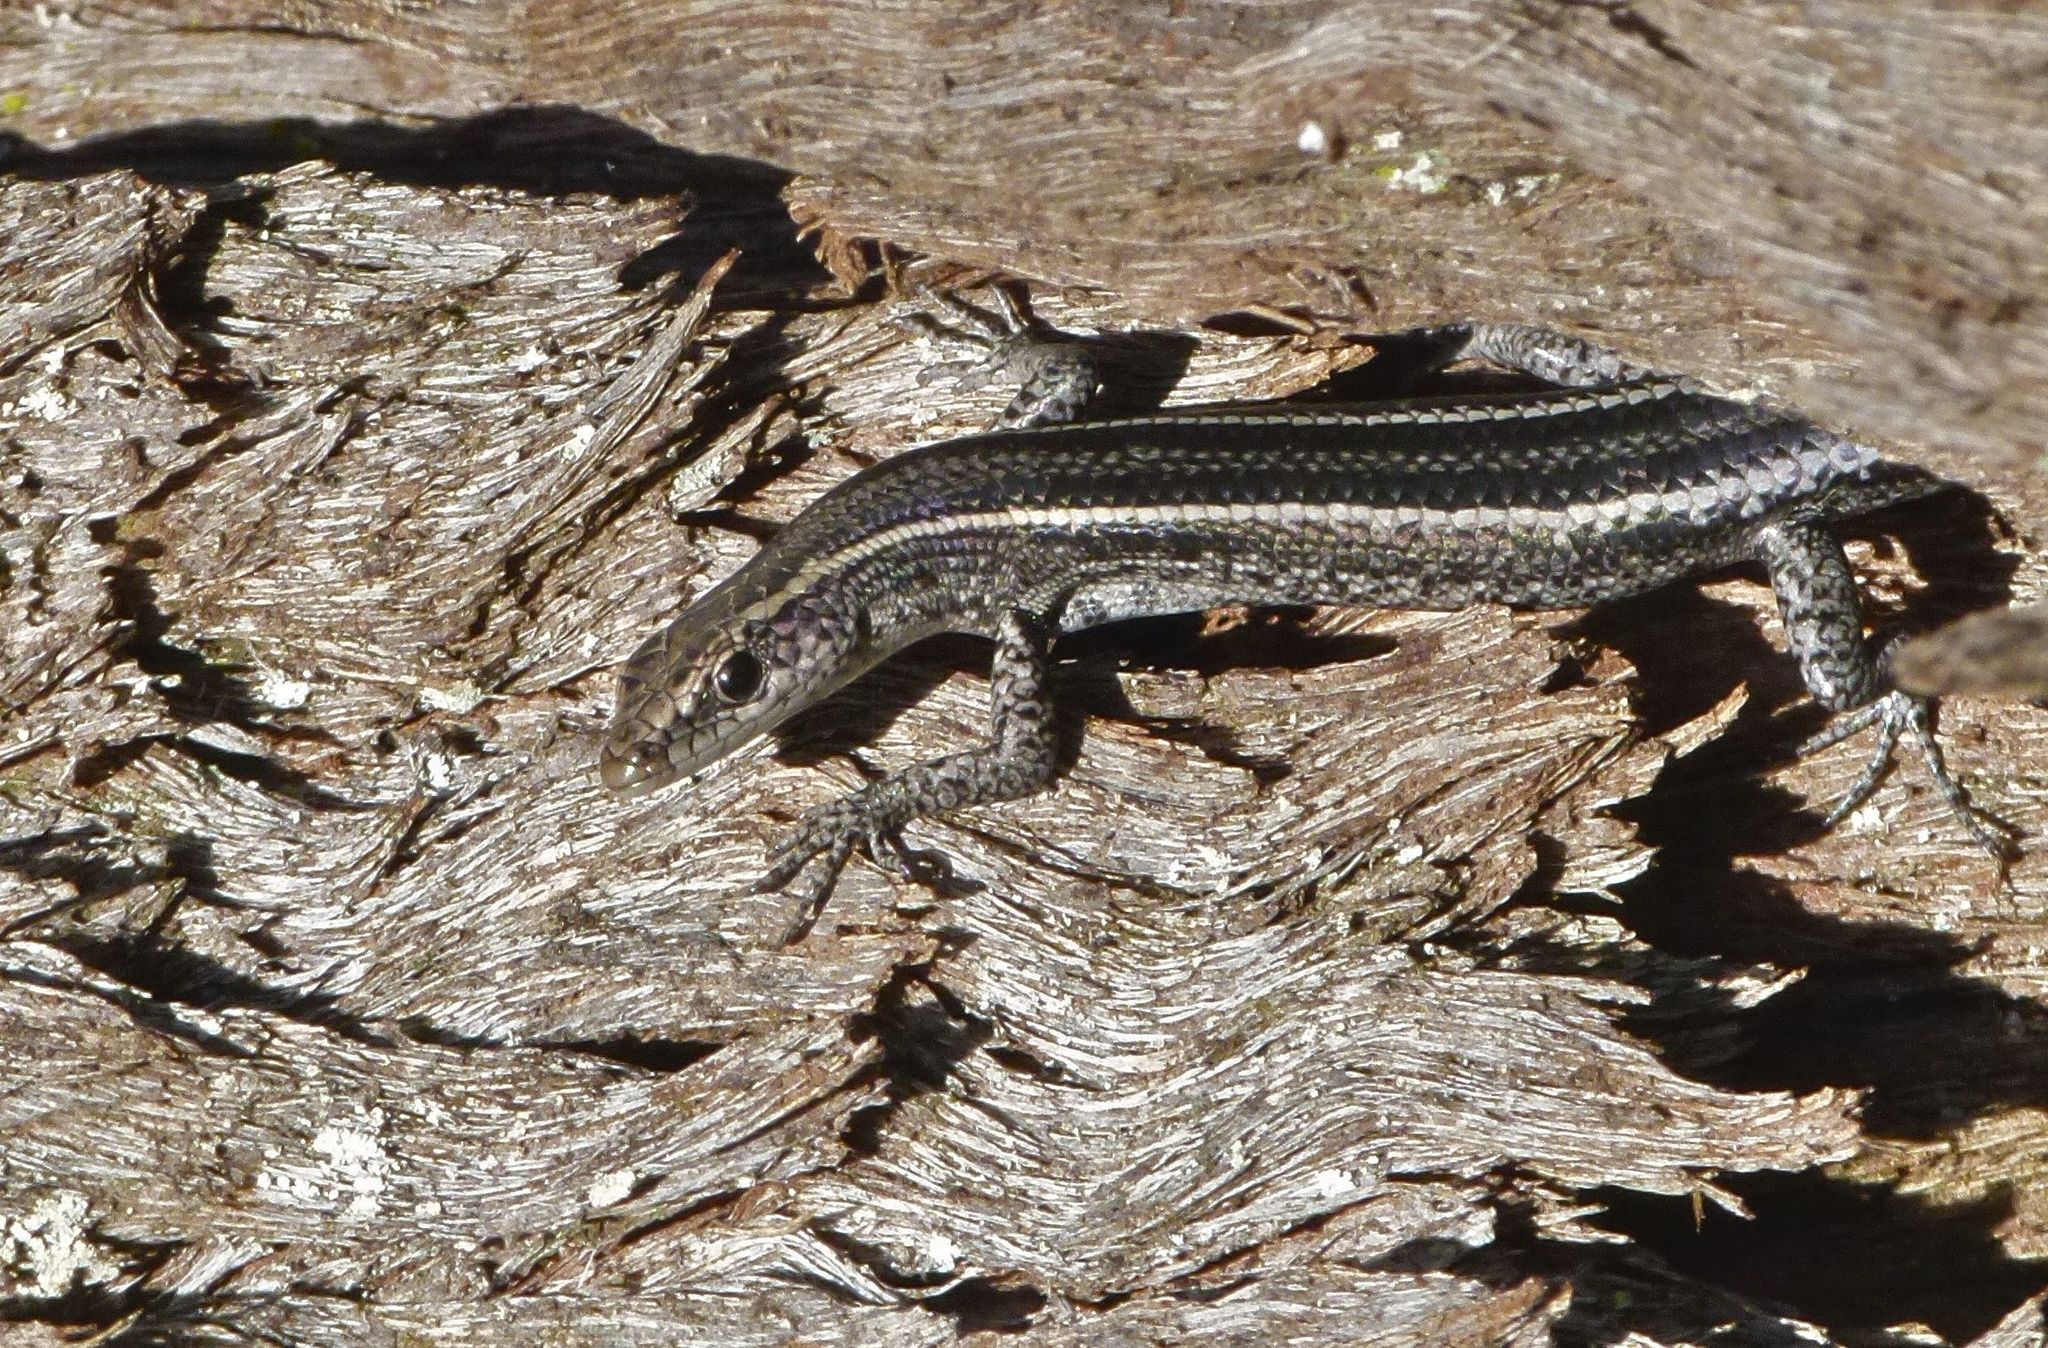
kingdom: Animalia
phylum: Chordata
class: Squamata
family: Scincidae
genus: Cryptoblepharus
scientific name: Cryptoblepharus pulcher
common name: Elegant snake-eyed skink
